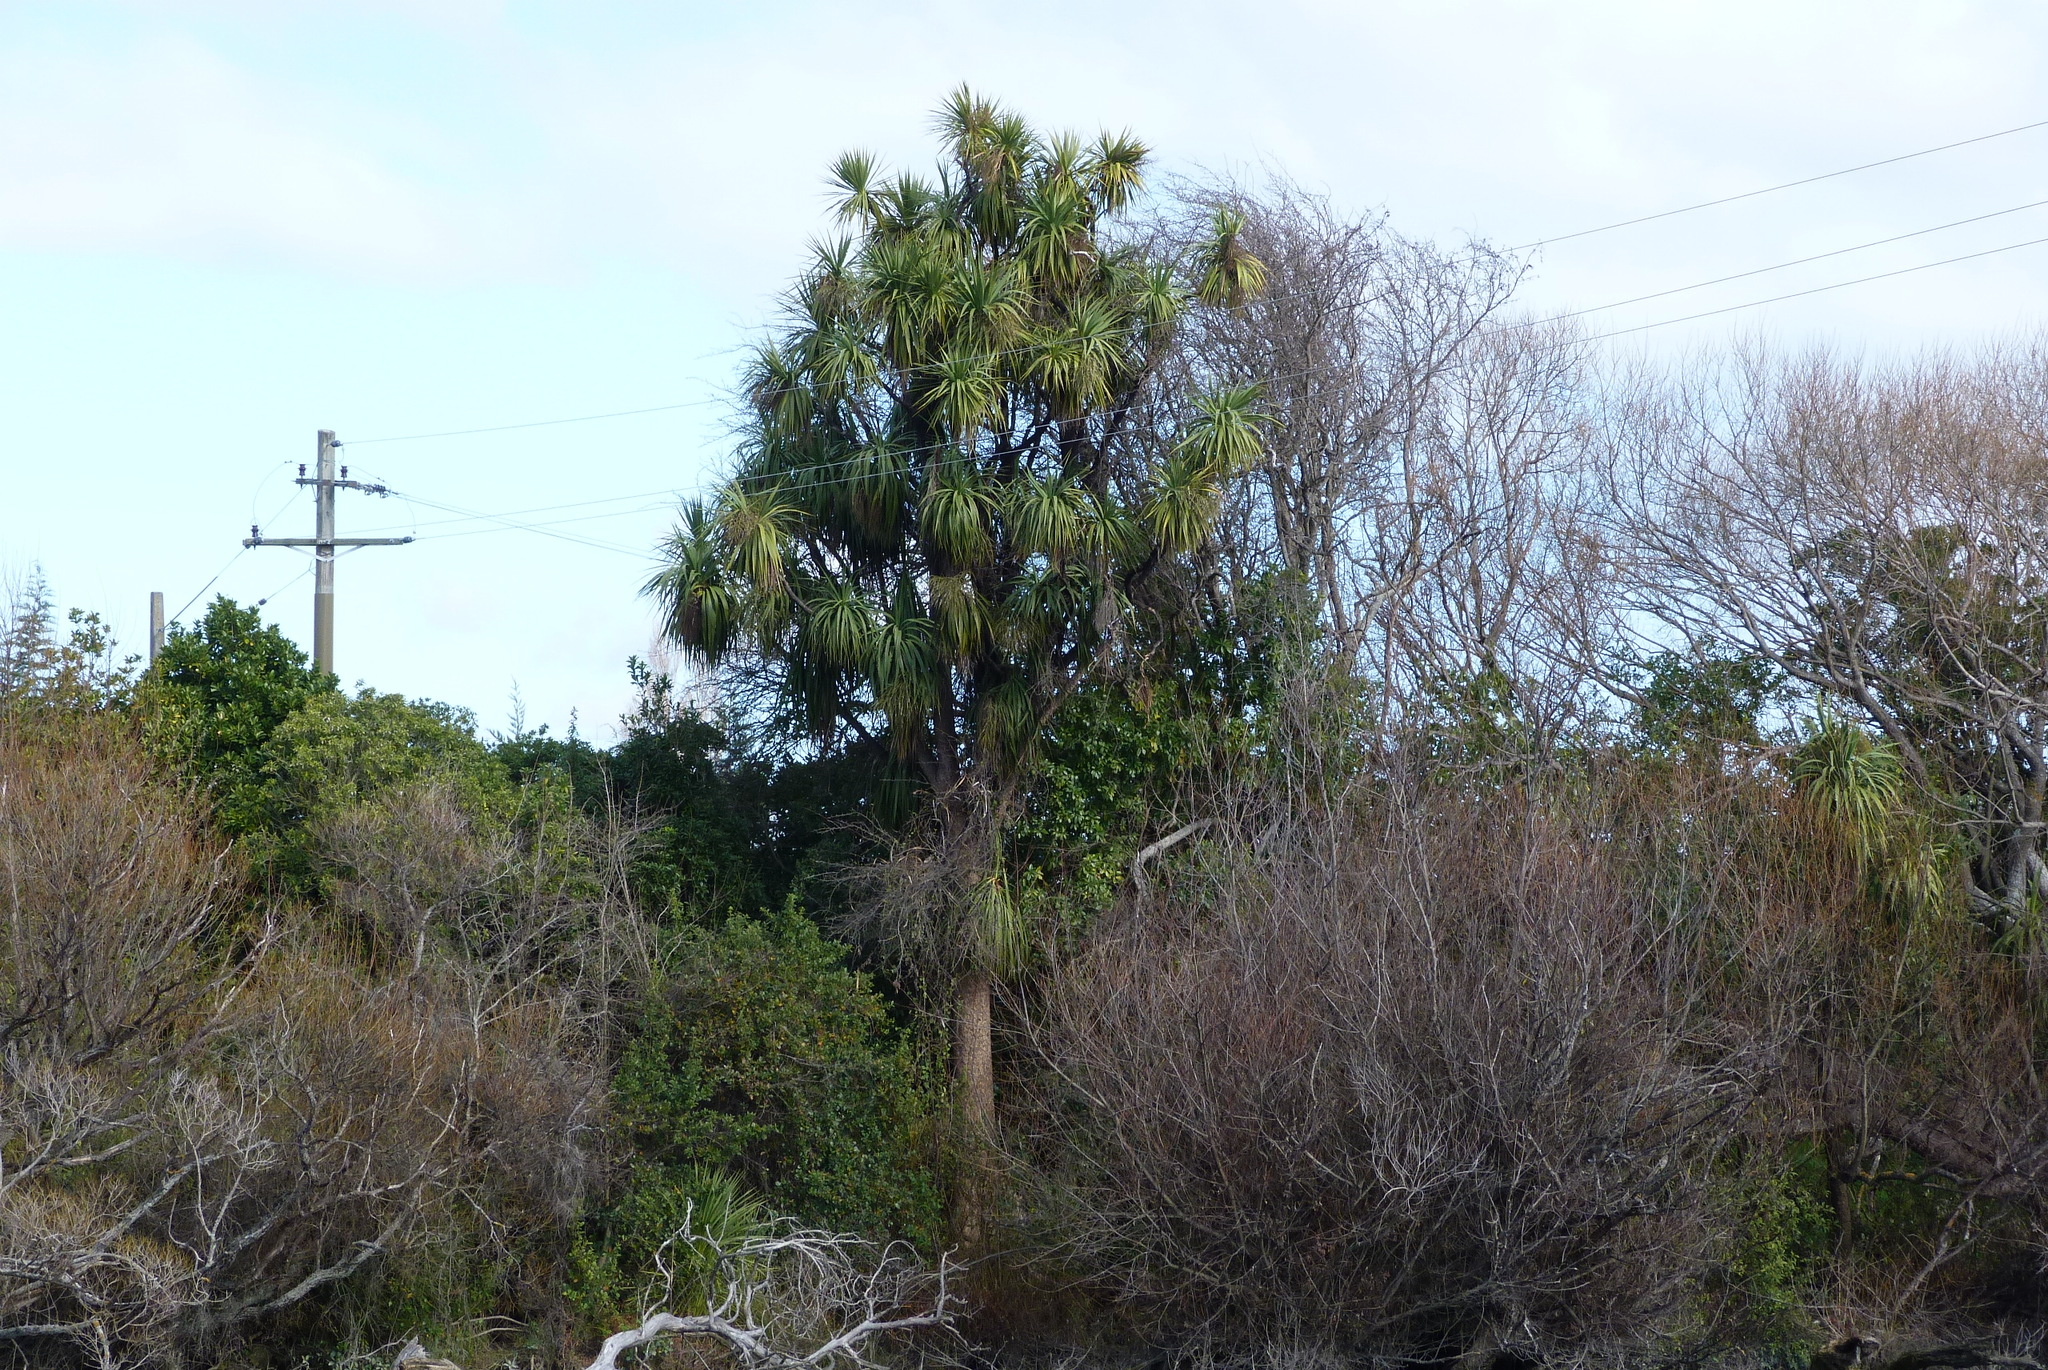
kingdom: Plantae
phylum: Tracheophyta
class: Liliopsida
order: Asparagales
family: Asparagaceae
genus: Cordyline
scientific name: Cordyline australis
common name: Cabbage-palm
